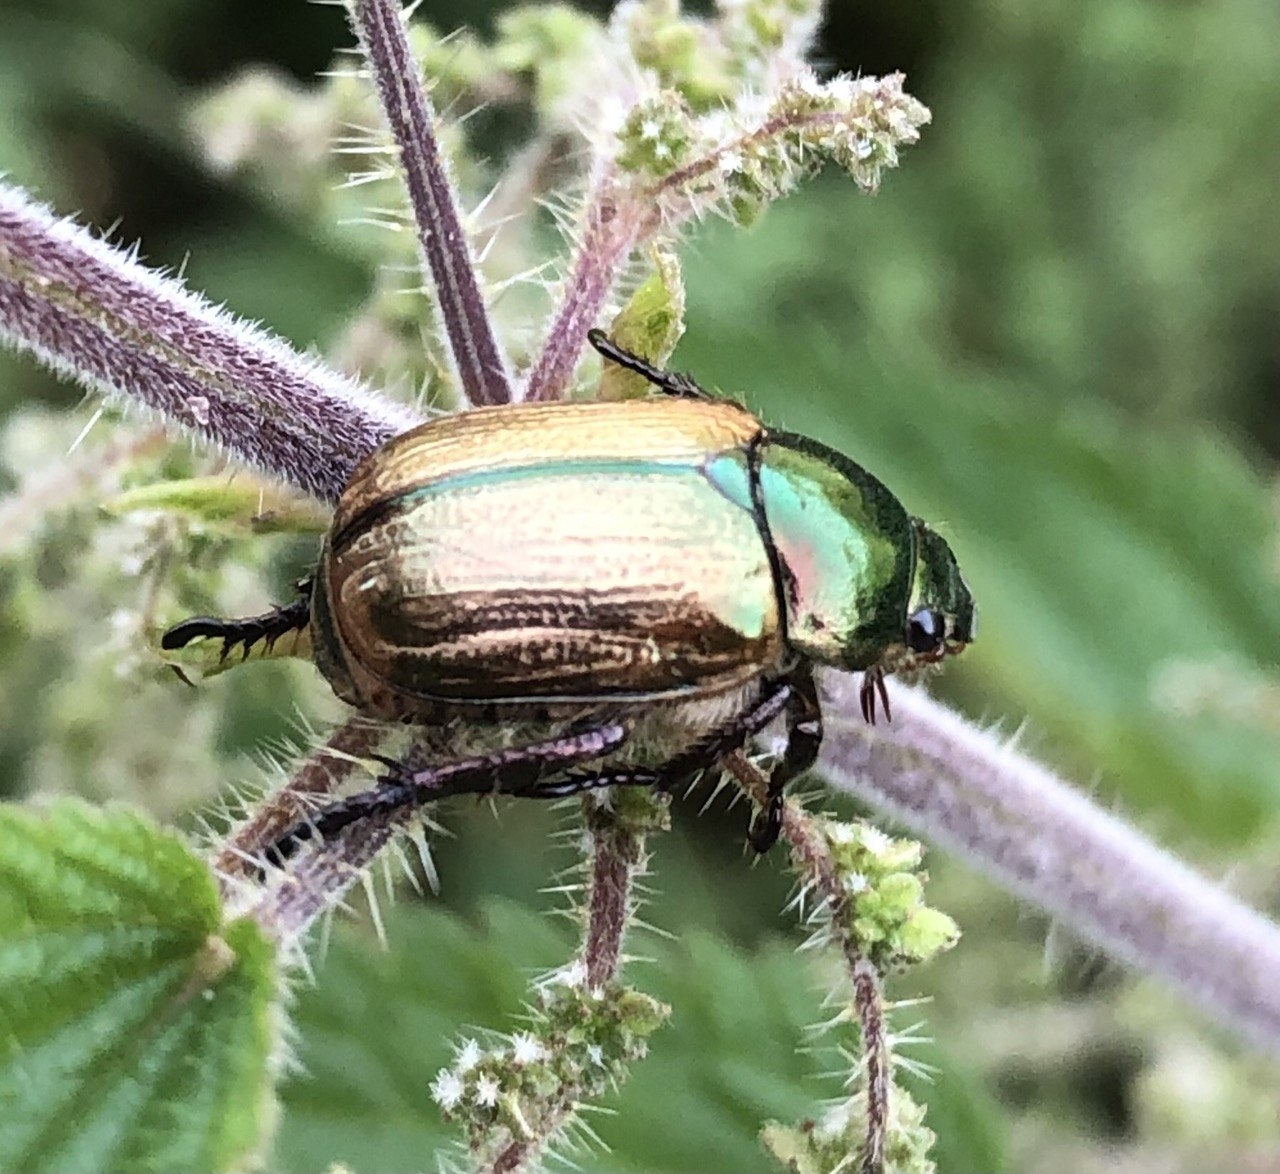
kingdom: Animalia
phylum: Arthropoda
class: Insecta
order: Coleoptera
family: Scarabaeidae
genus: Mimela
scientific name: Mimela junii
